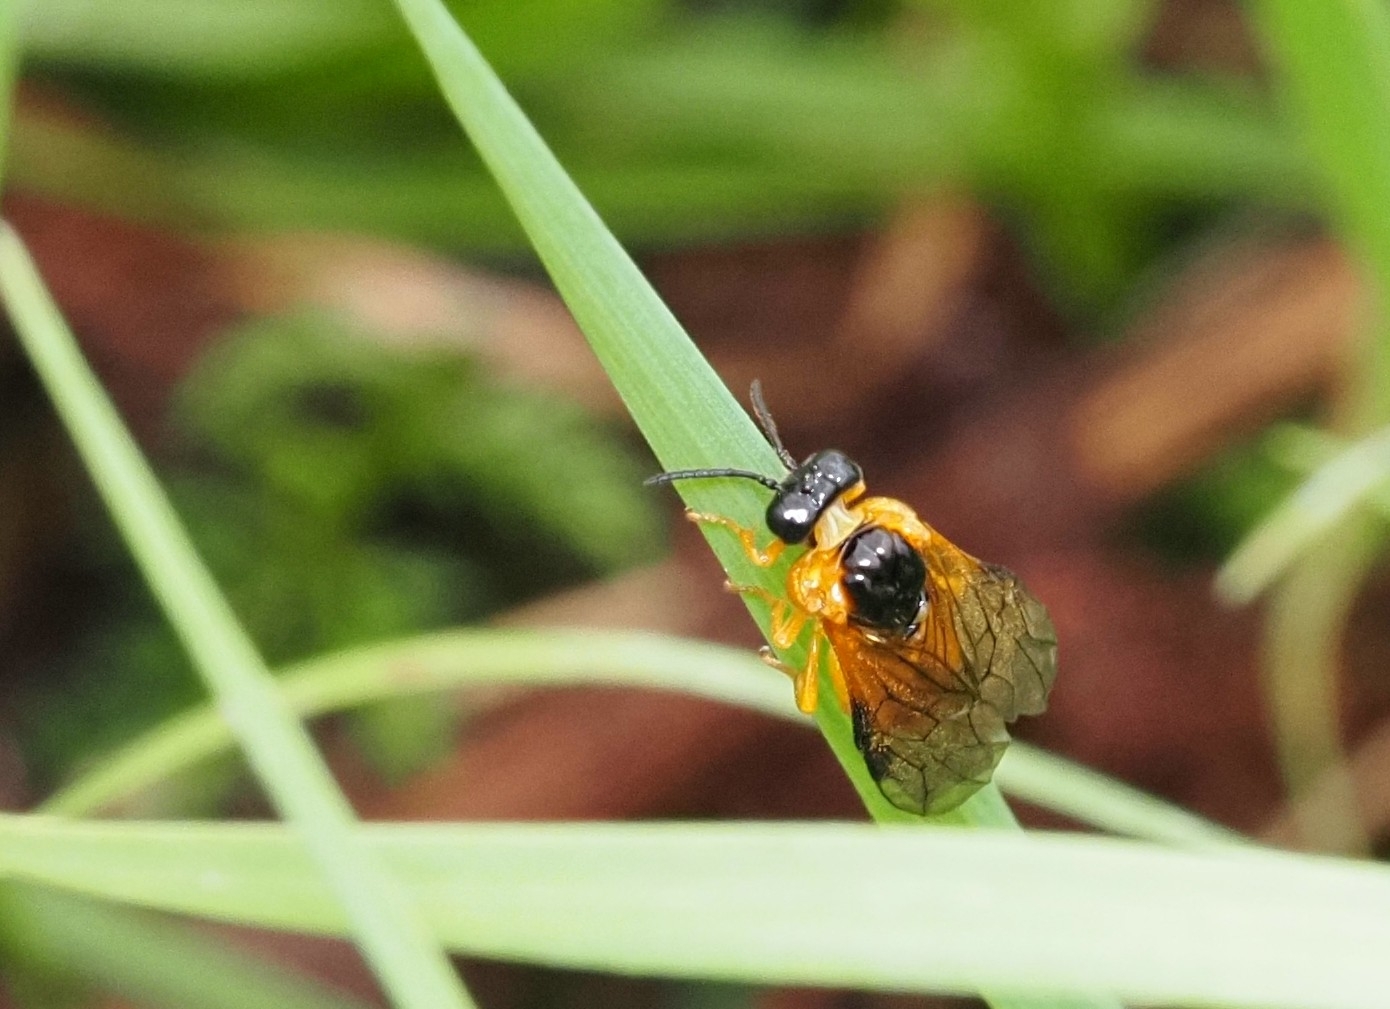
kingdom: Animalia
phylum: Arthropoda
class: Insecta
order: Hymenoptera
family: Tenthredinidae
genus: Selandria
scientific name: Selandria serva
